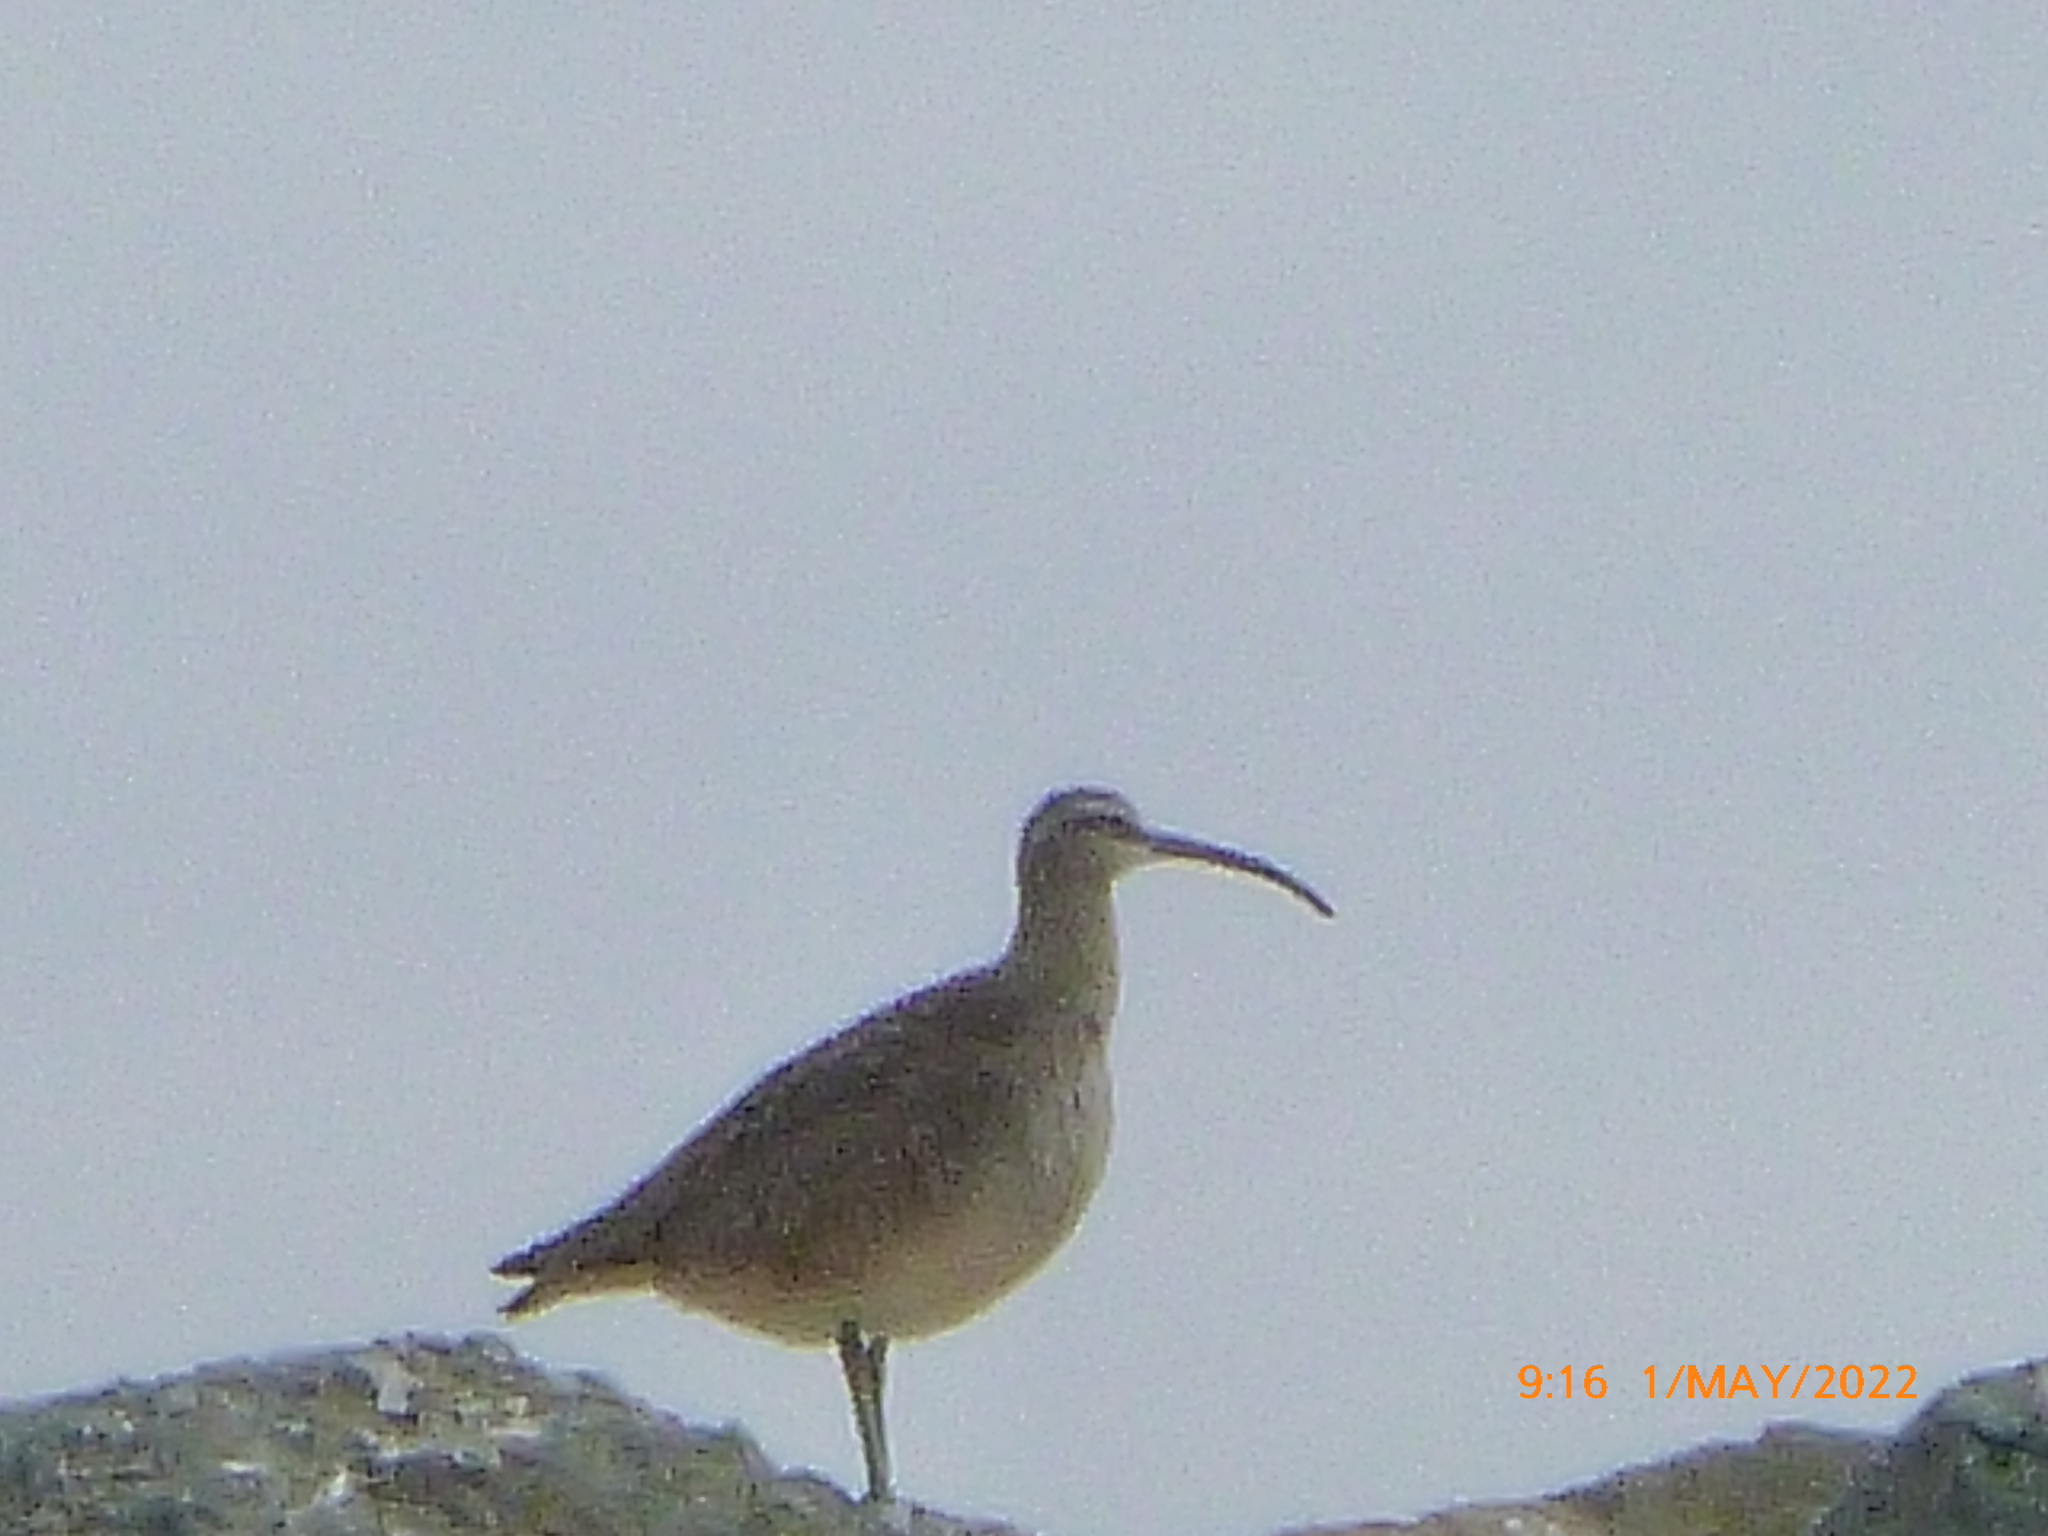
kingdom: Animalia
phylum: Chordata
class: Aves
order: Charadriiformes
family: Scolopacidae
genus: Numenius
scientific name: Numenius phaeopus
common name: Whimbrel
